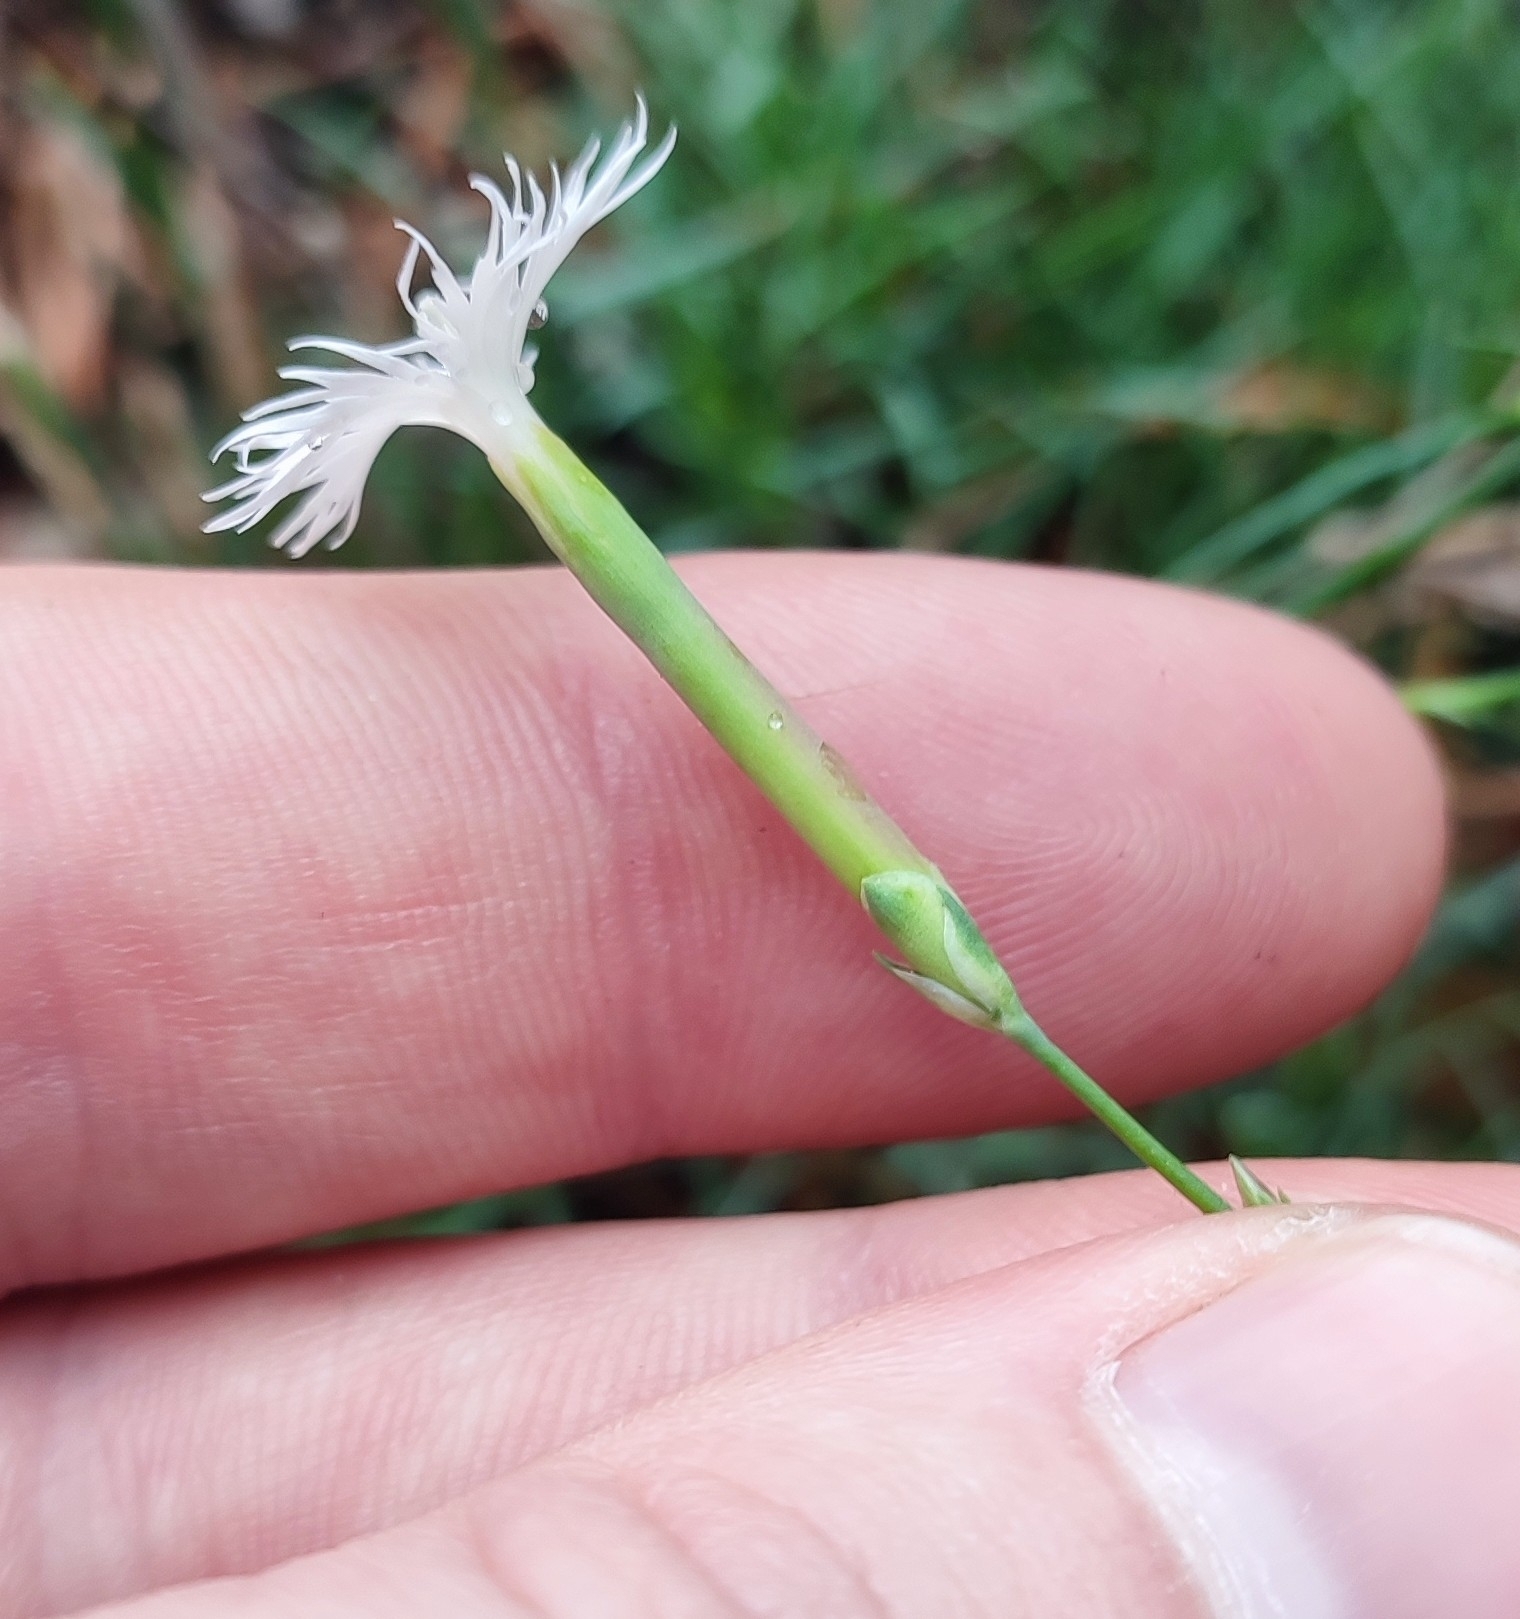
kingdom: Plantae
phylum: Tracheophyta
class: Magnoliopsida
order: Caryophyllales
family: Caryophyllaceae
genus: Dianthus
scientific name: Dianthus arenarius
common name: Stone pink
